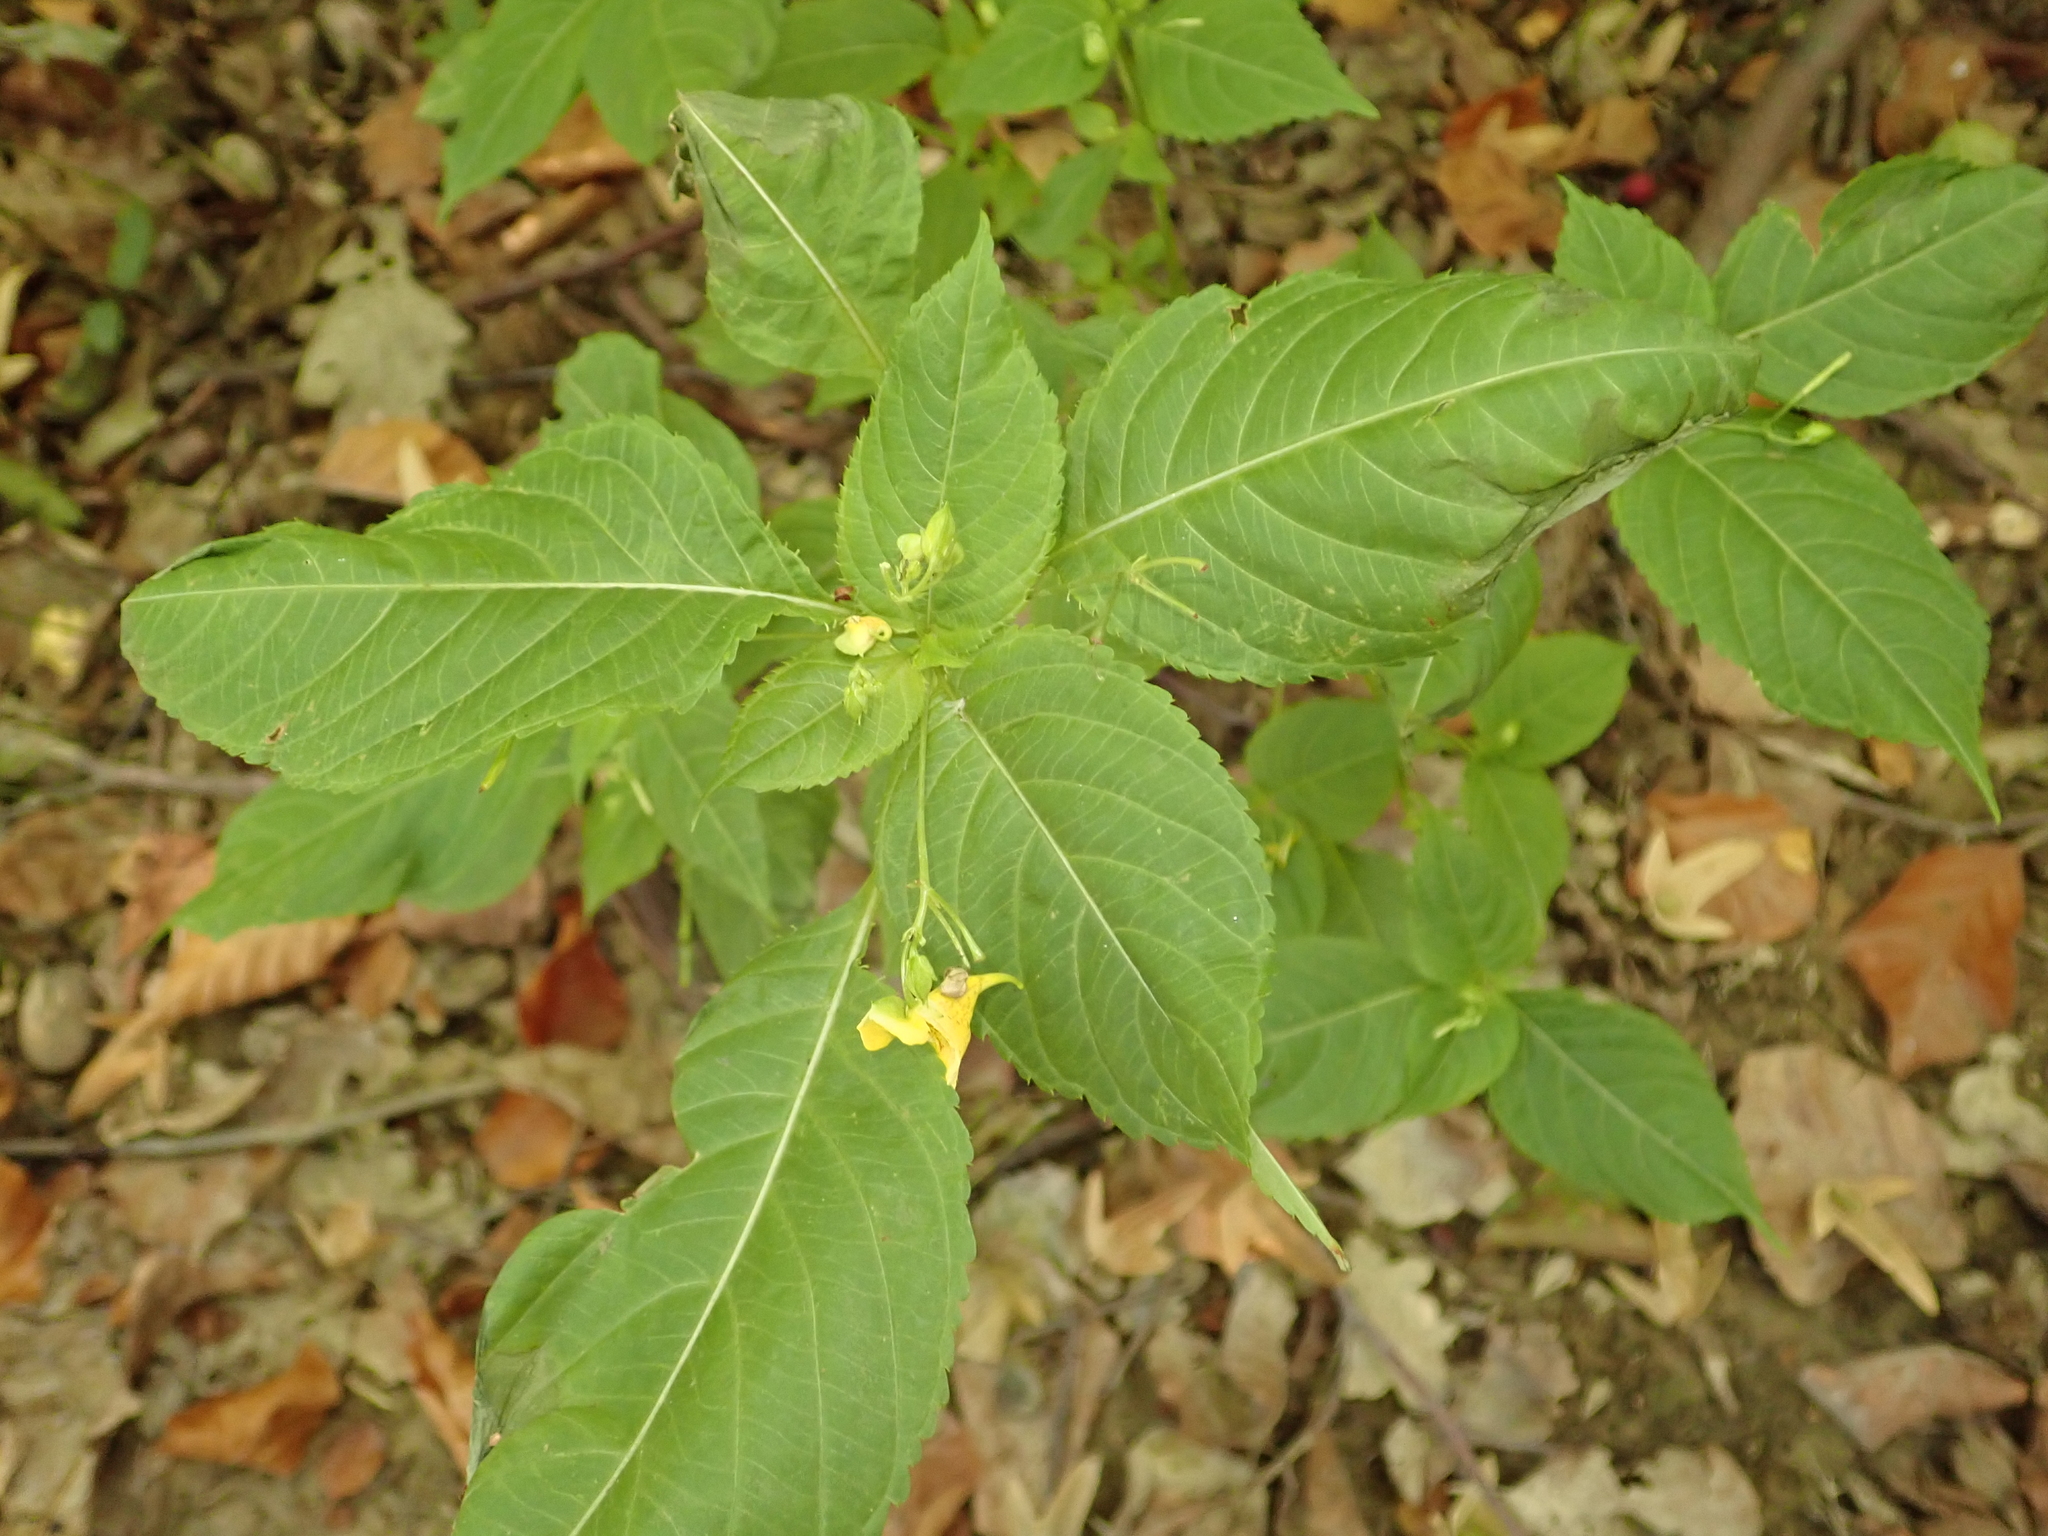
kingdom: Plantae
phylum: Tracheophyta
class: Magnoliopsida
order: Ericales
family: Balsaminaceae
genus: Impatiens
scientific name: Impatiens edgeworthii
